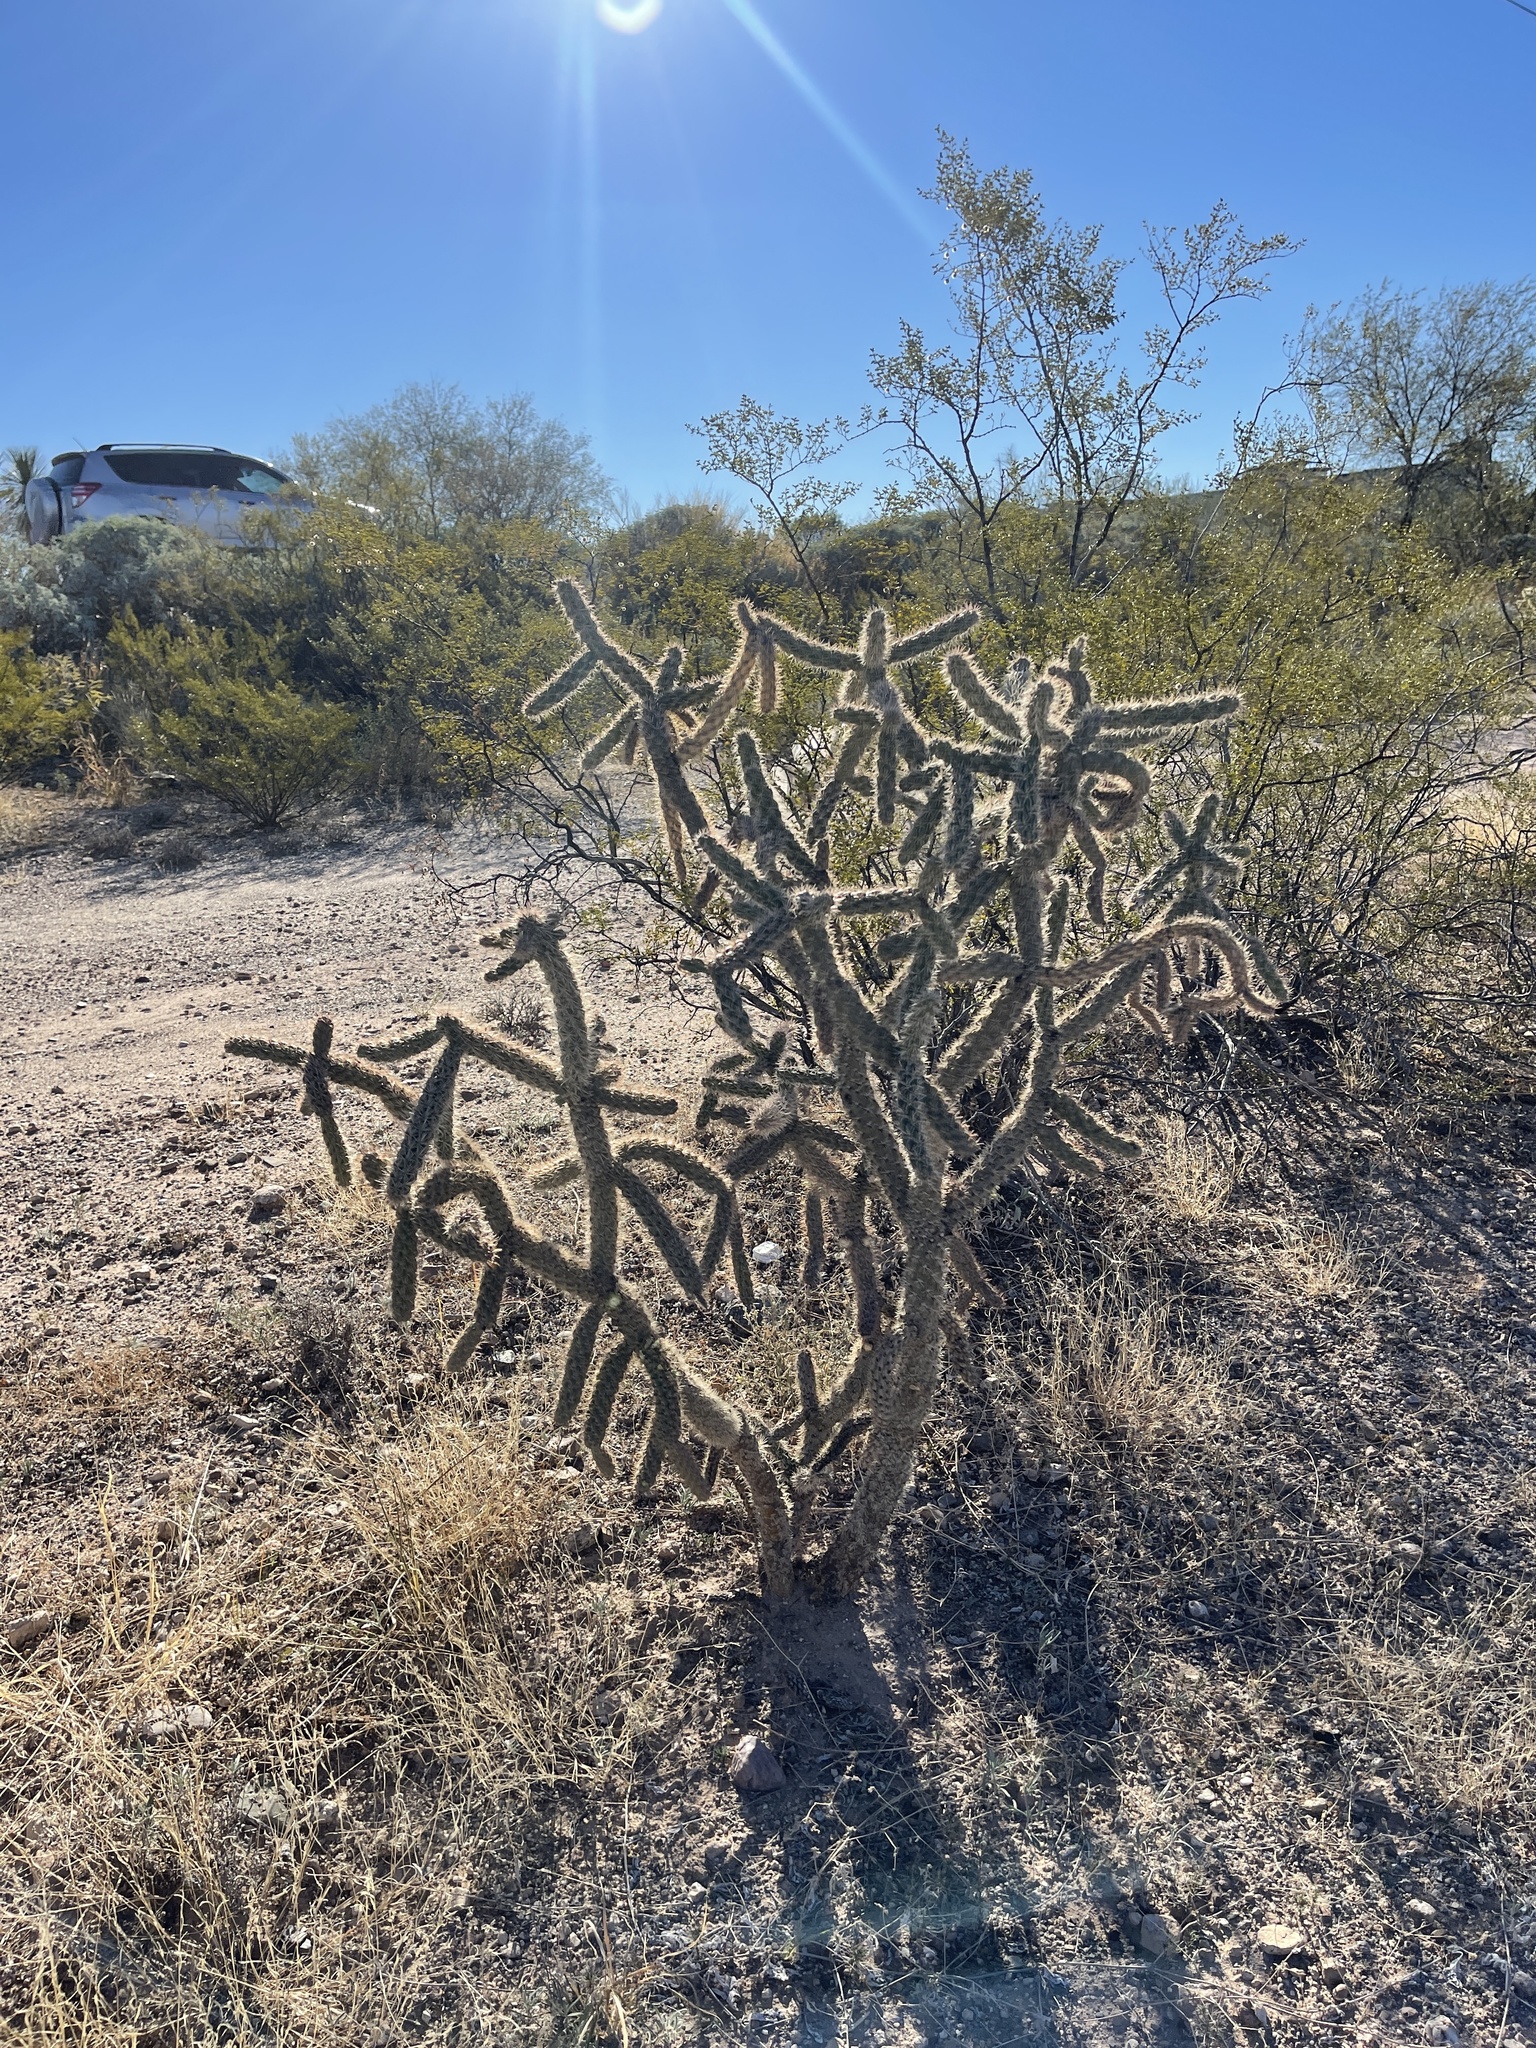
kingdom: Plantae
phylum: Tracheophyta
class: Magnoliopsida
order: Caryophyllales
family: Cactaceae
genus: Cylindropuntia
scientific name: Cylindropuntia thurberi
